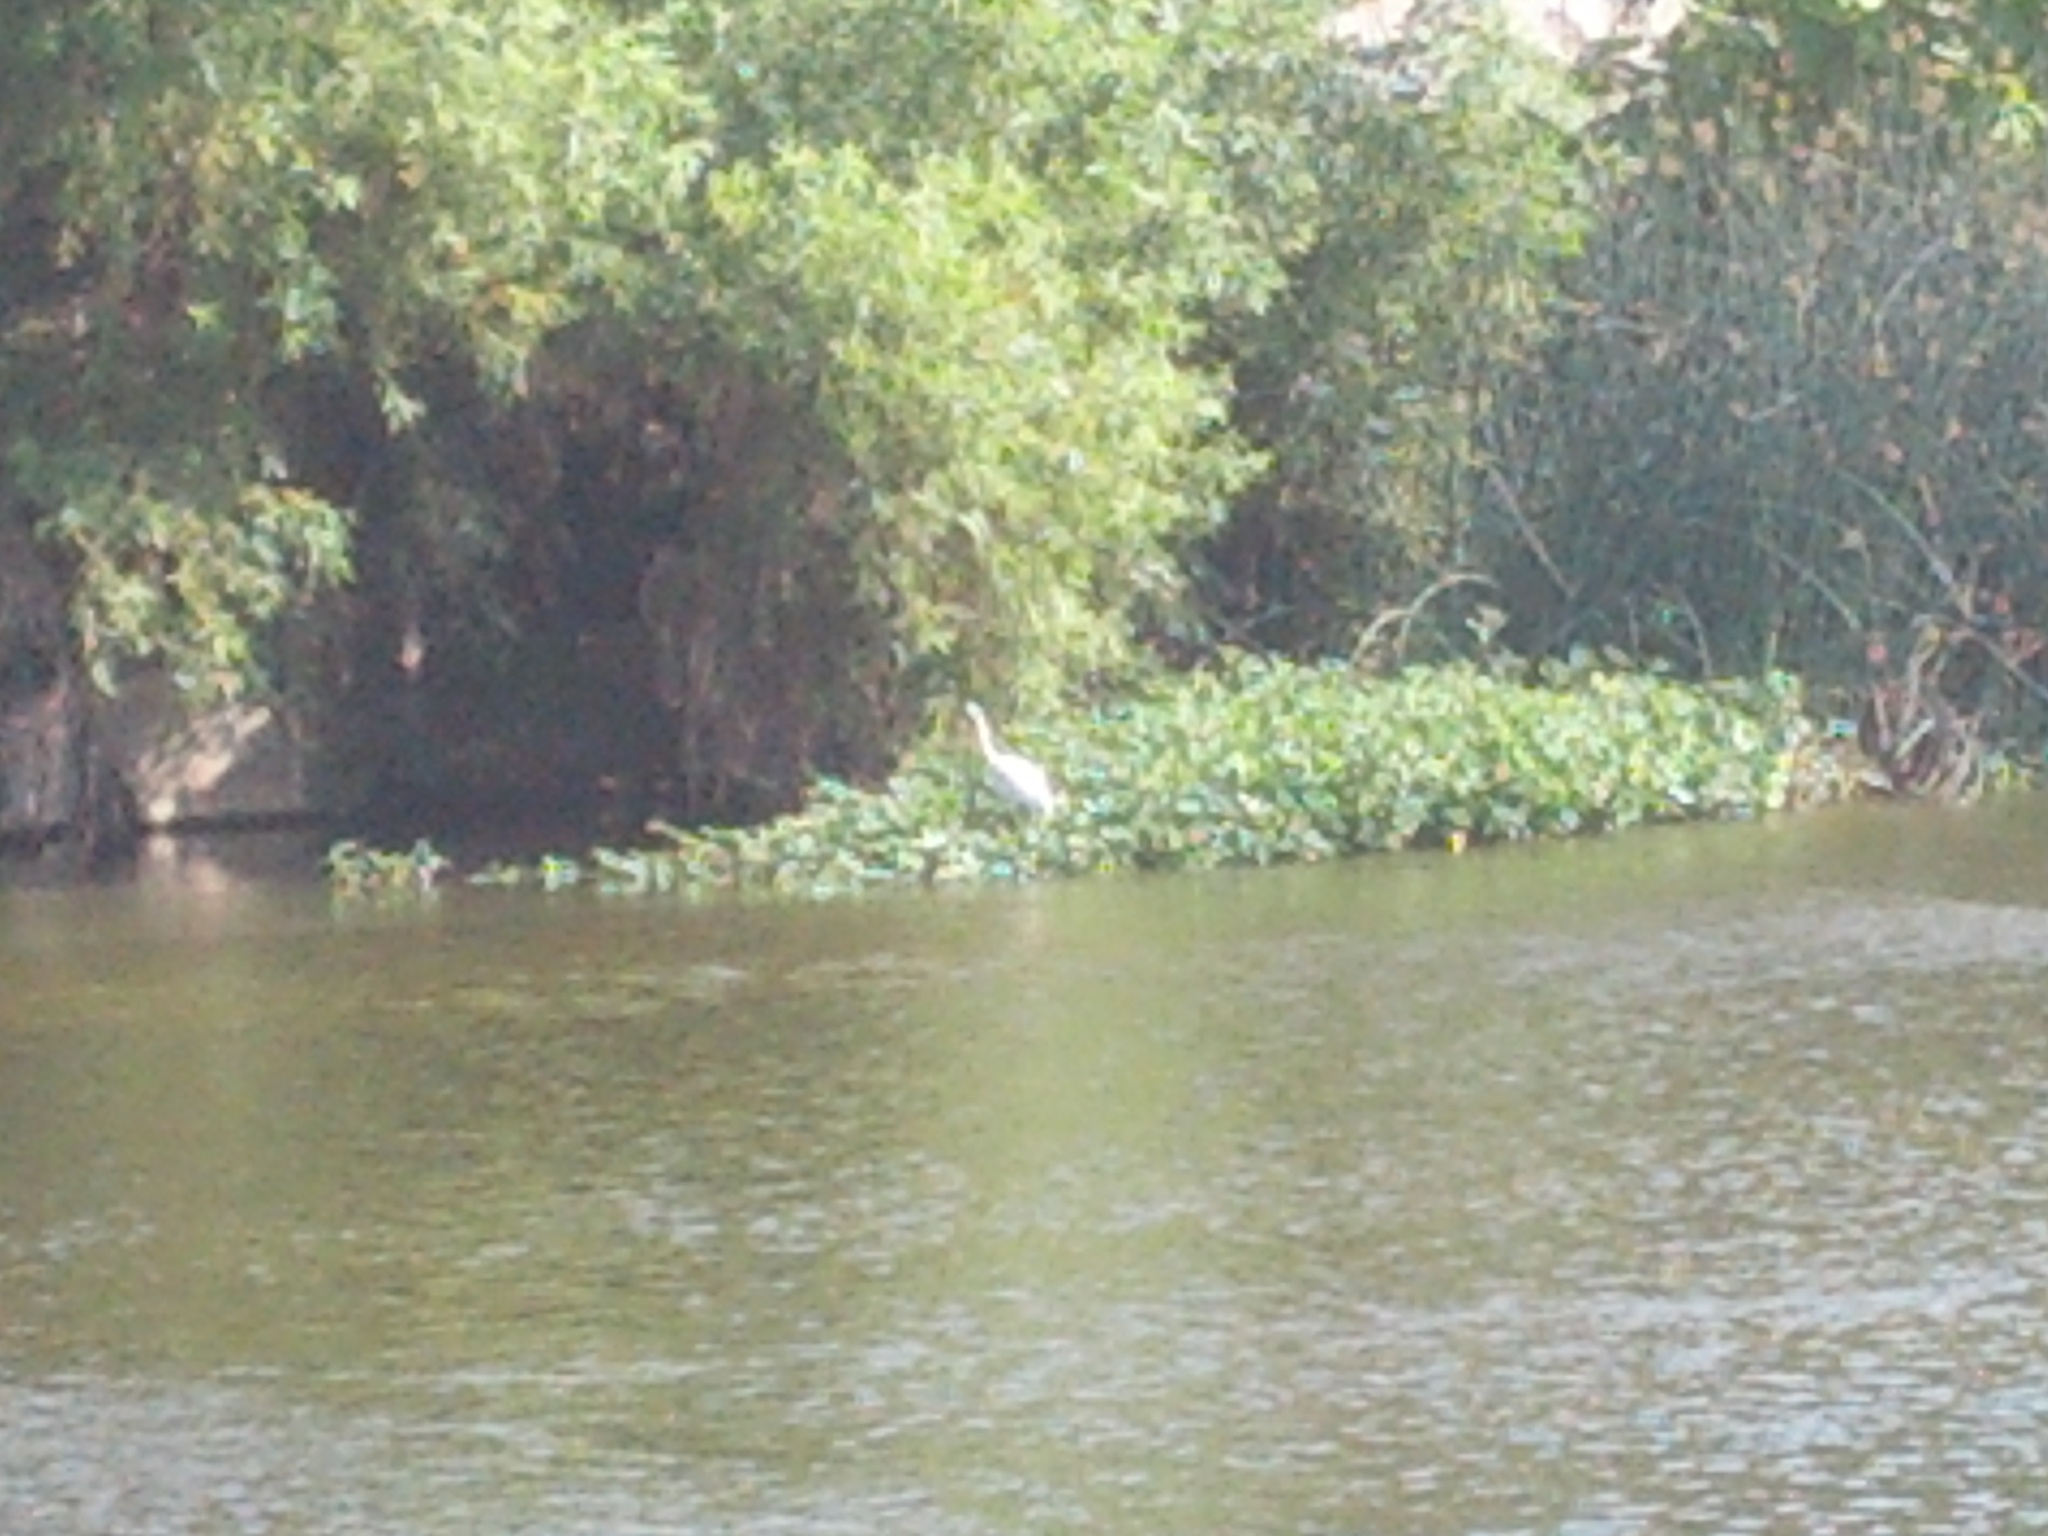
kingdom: Animalia
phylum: Chordata
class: Aves
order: Pelecaniformes
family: Ardeidae
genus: Ardea
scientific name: Ardea alba
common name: Great egret
